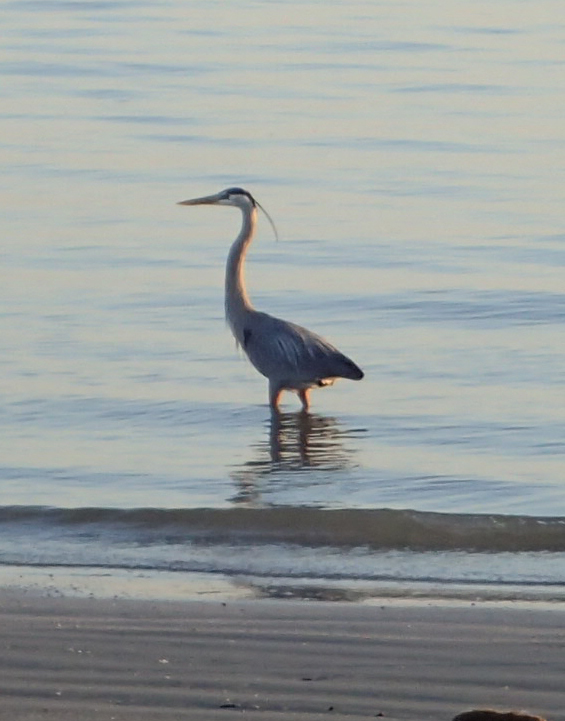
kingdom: Animalia
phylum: Chordata
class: Aves
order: Pelecaniformes
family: Ardeidae
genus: Ardea
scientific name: Ardea herodias
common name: Great blue heron
